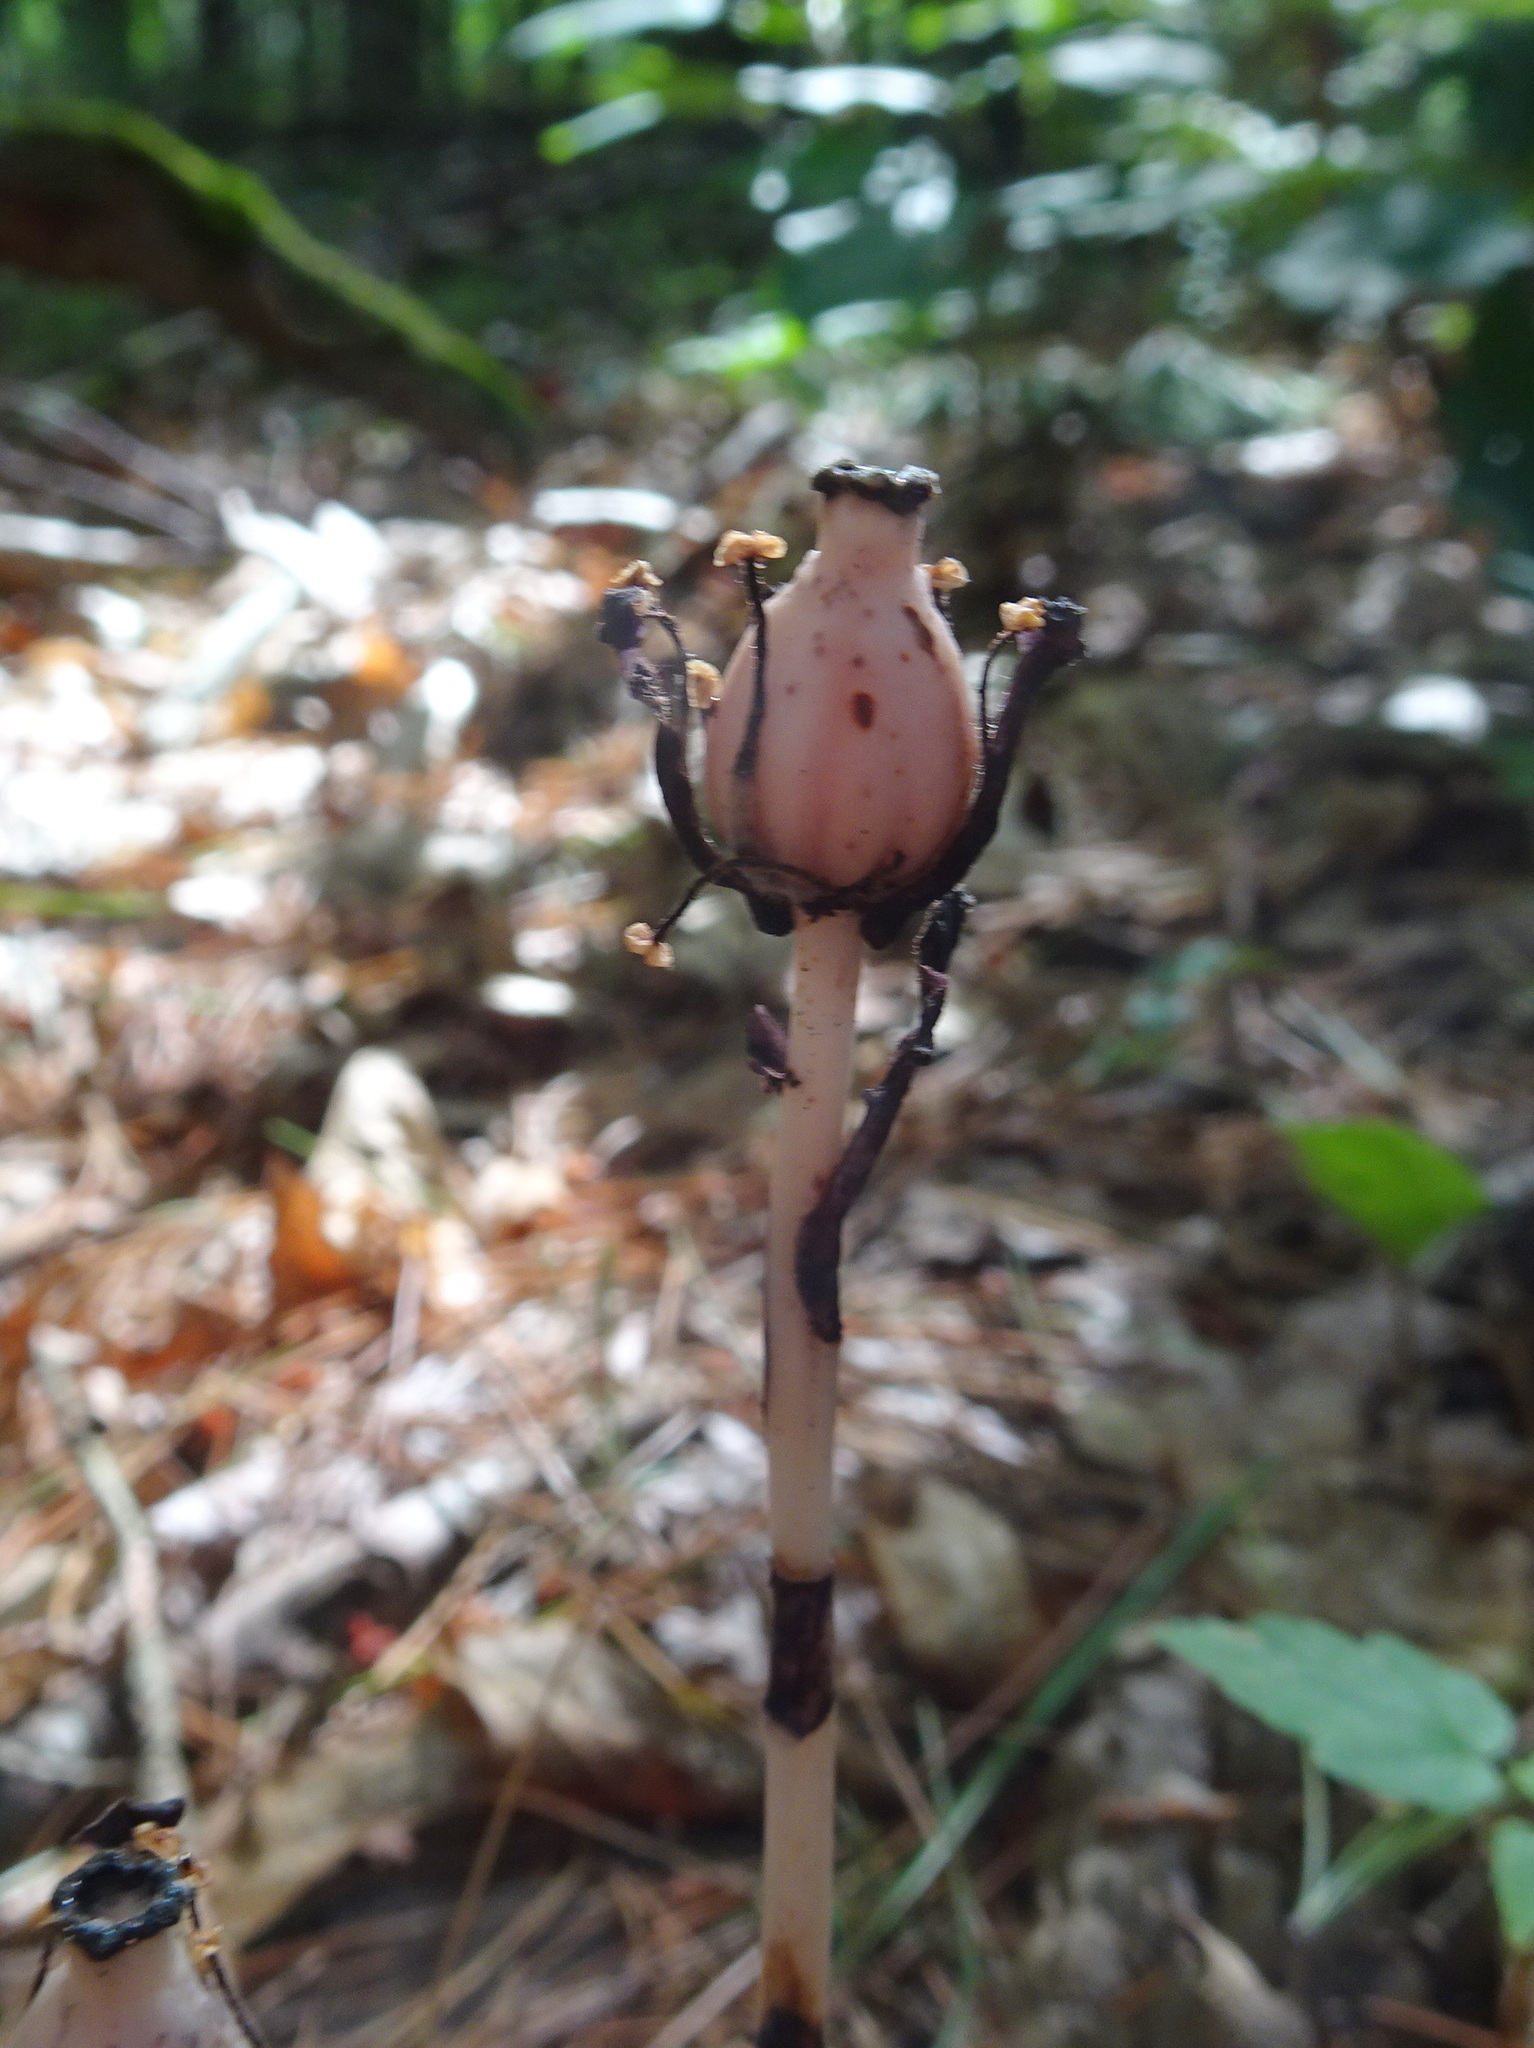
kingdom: Plantae
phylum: Tracheophyta
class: Magnoliopsida
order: Ericales
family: Ericaceae
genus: Monotropa
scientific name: Monotropa uniflora
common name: Convulsion root
